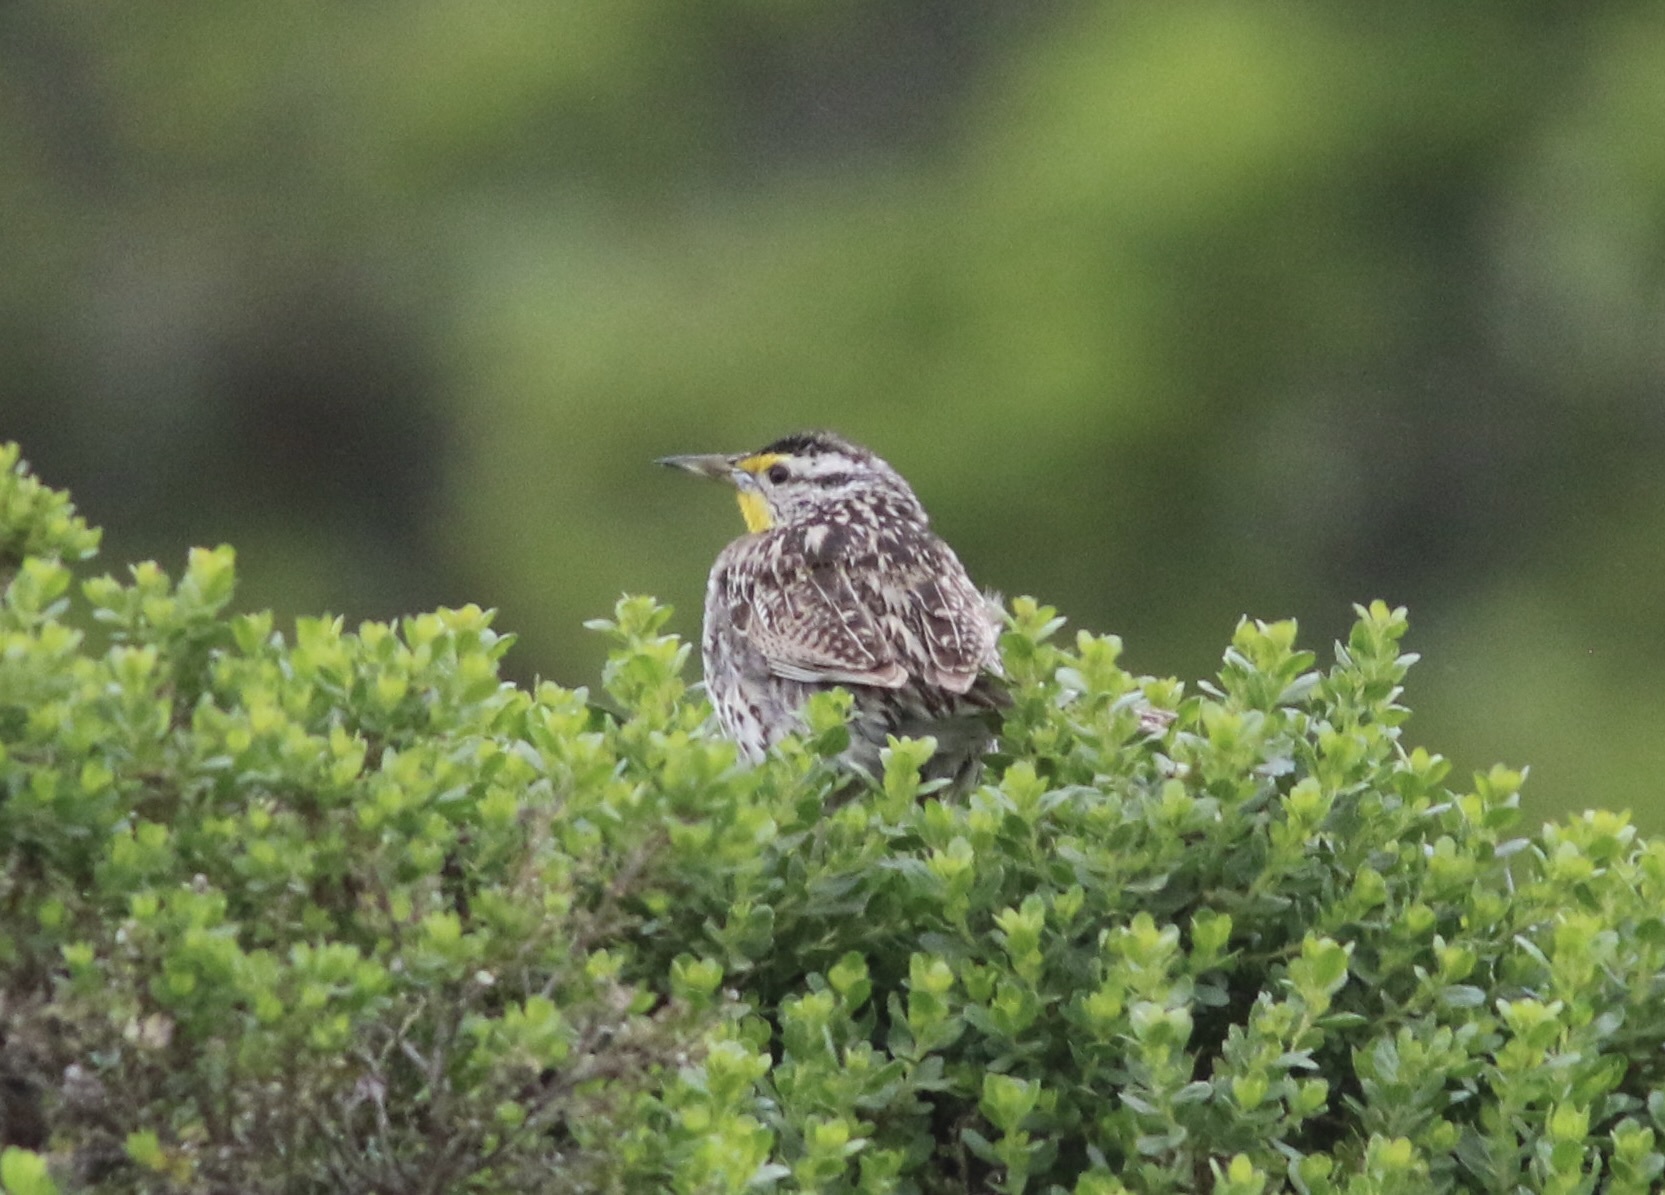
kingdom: Animalia
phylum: Chordata
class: Aves
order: Passeriformes
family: Icteridae
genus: Sturnella
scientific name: Sturnella neglecta
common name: Western meadowlark
